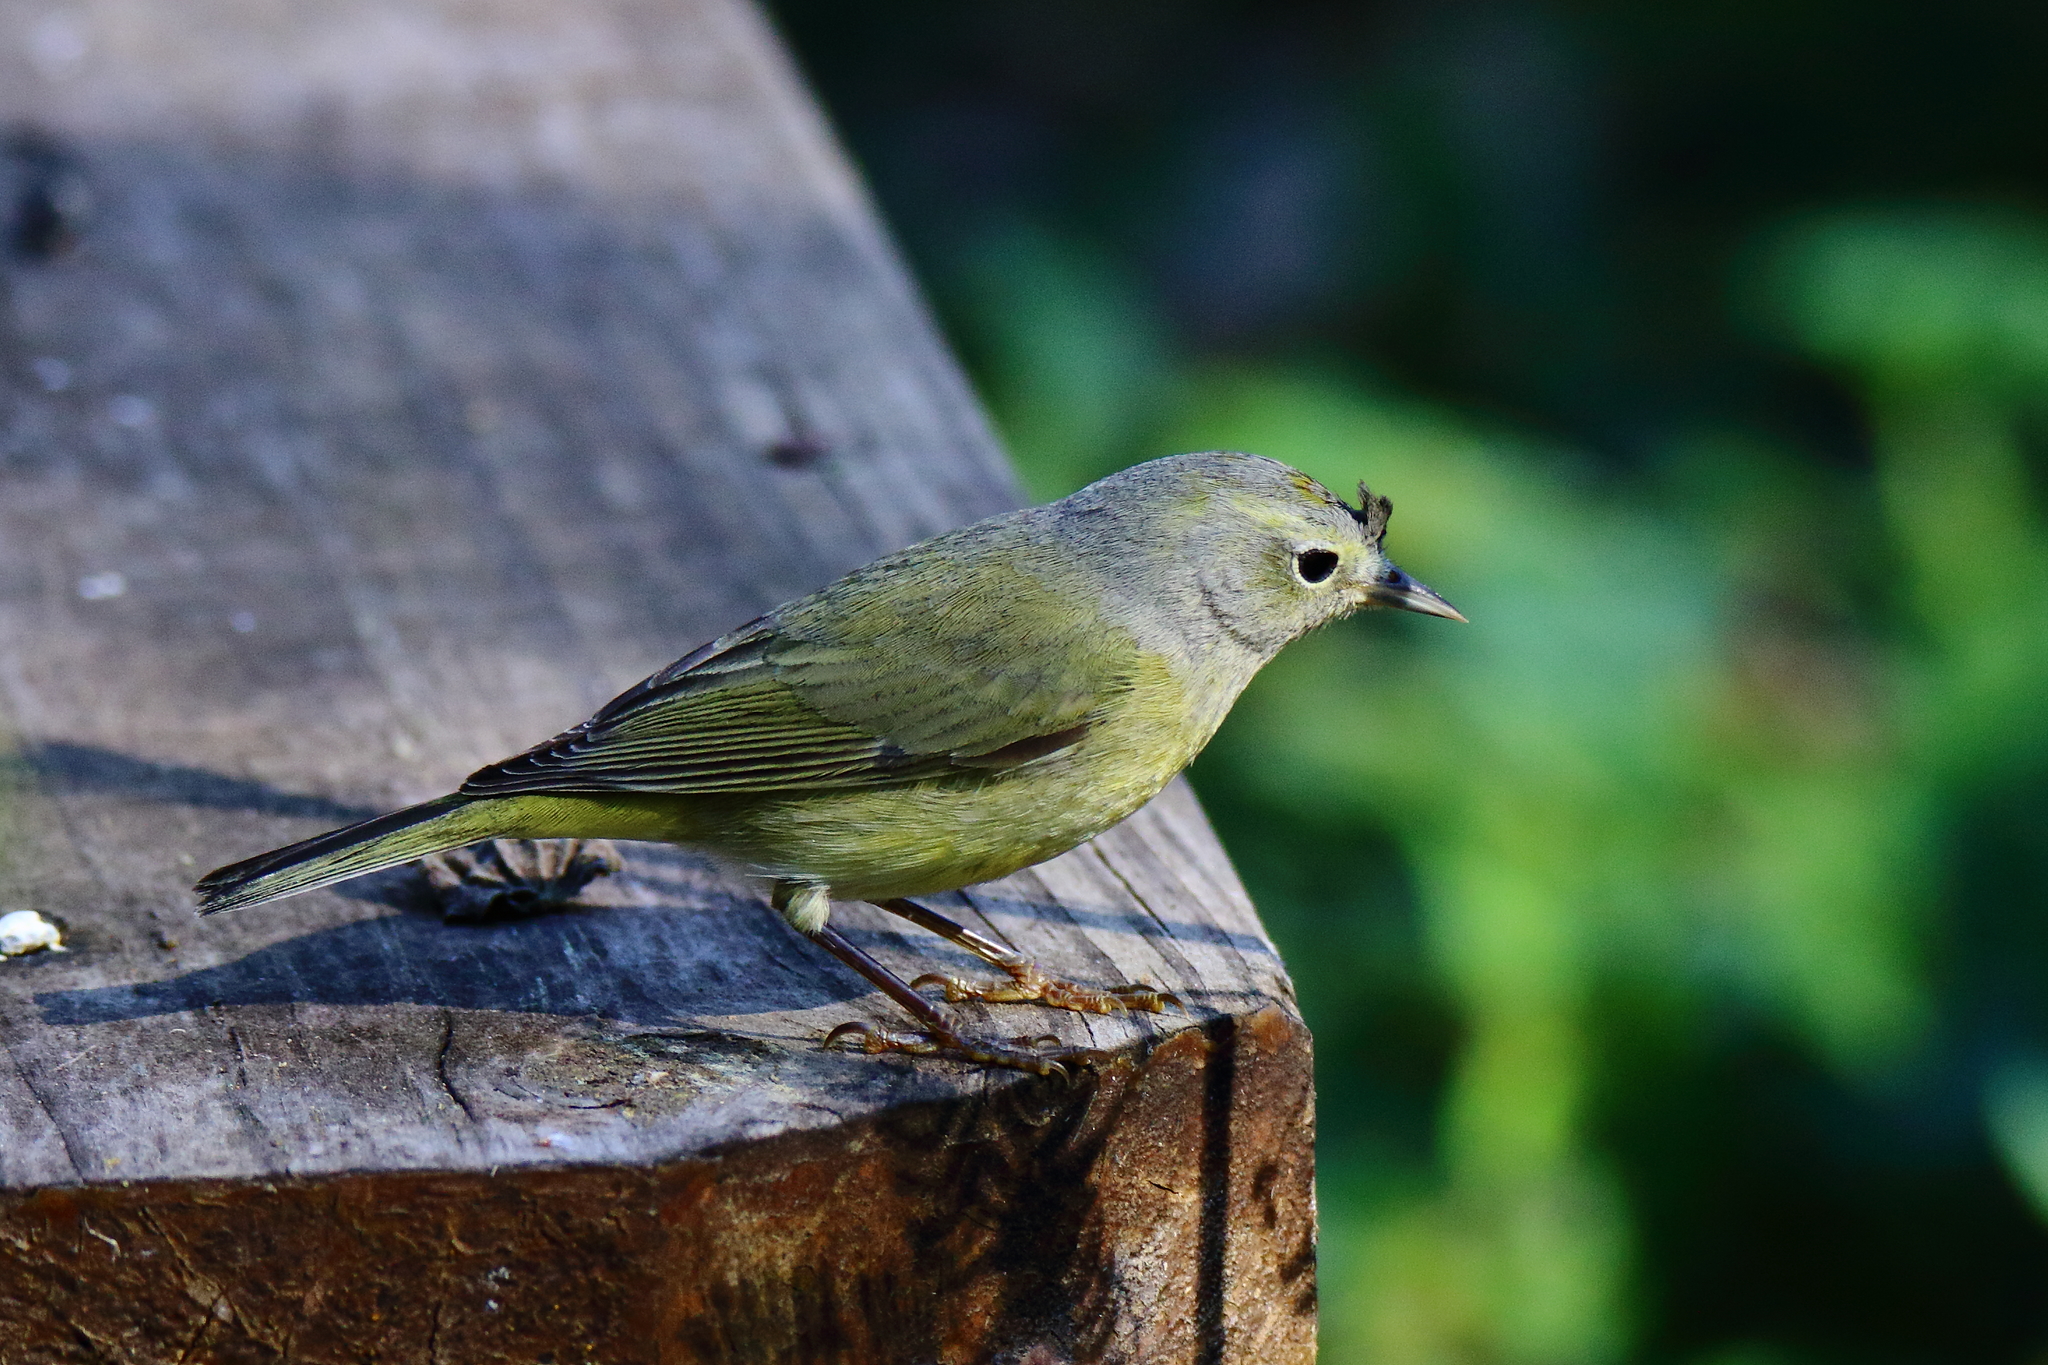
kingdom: Animalia
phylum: Chordata
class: Aves
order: Passeriformes
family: Parulidae
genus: Leiothlypis
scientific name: Leiothlypis celata
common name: Orange-crowned warbler
